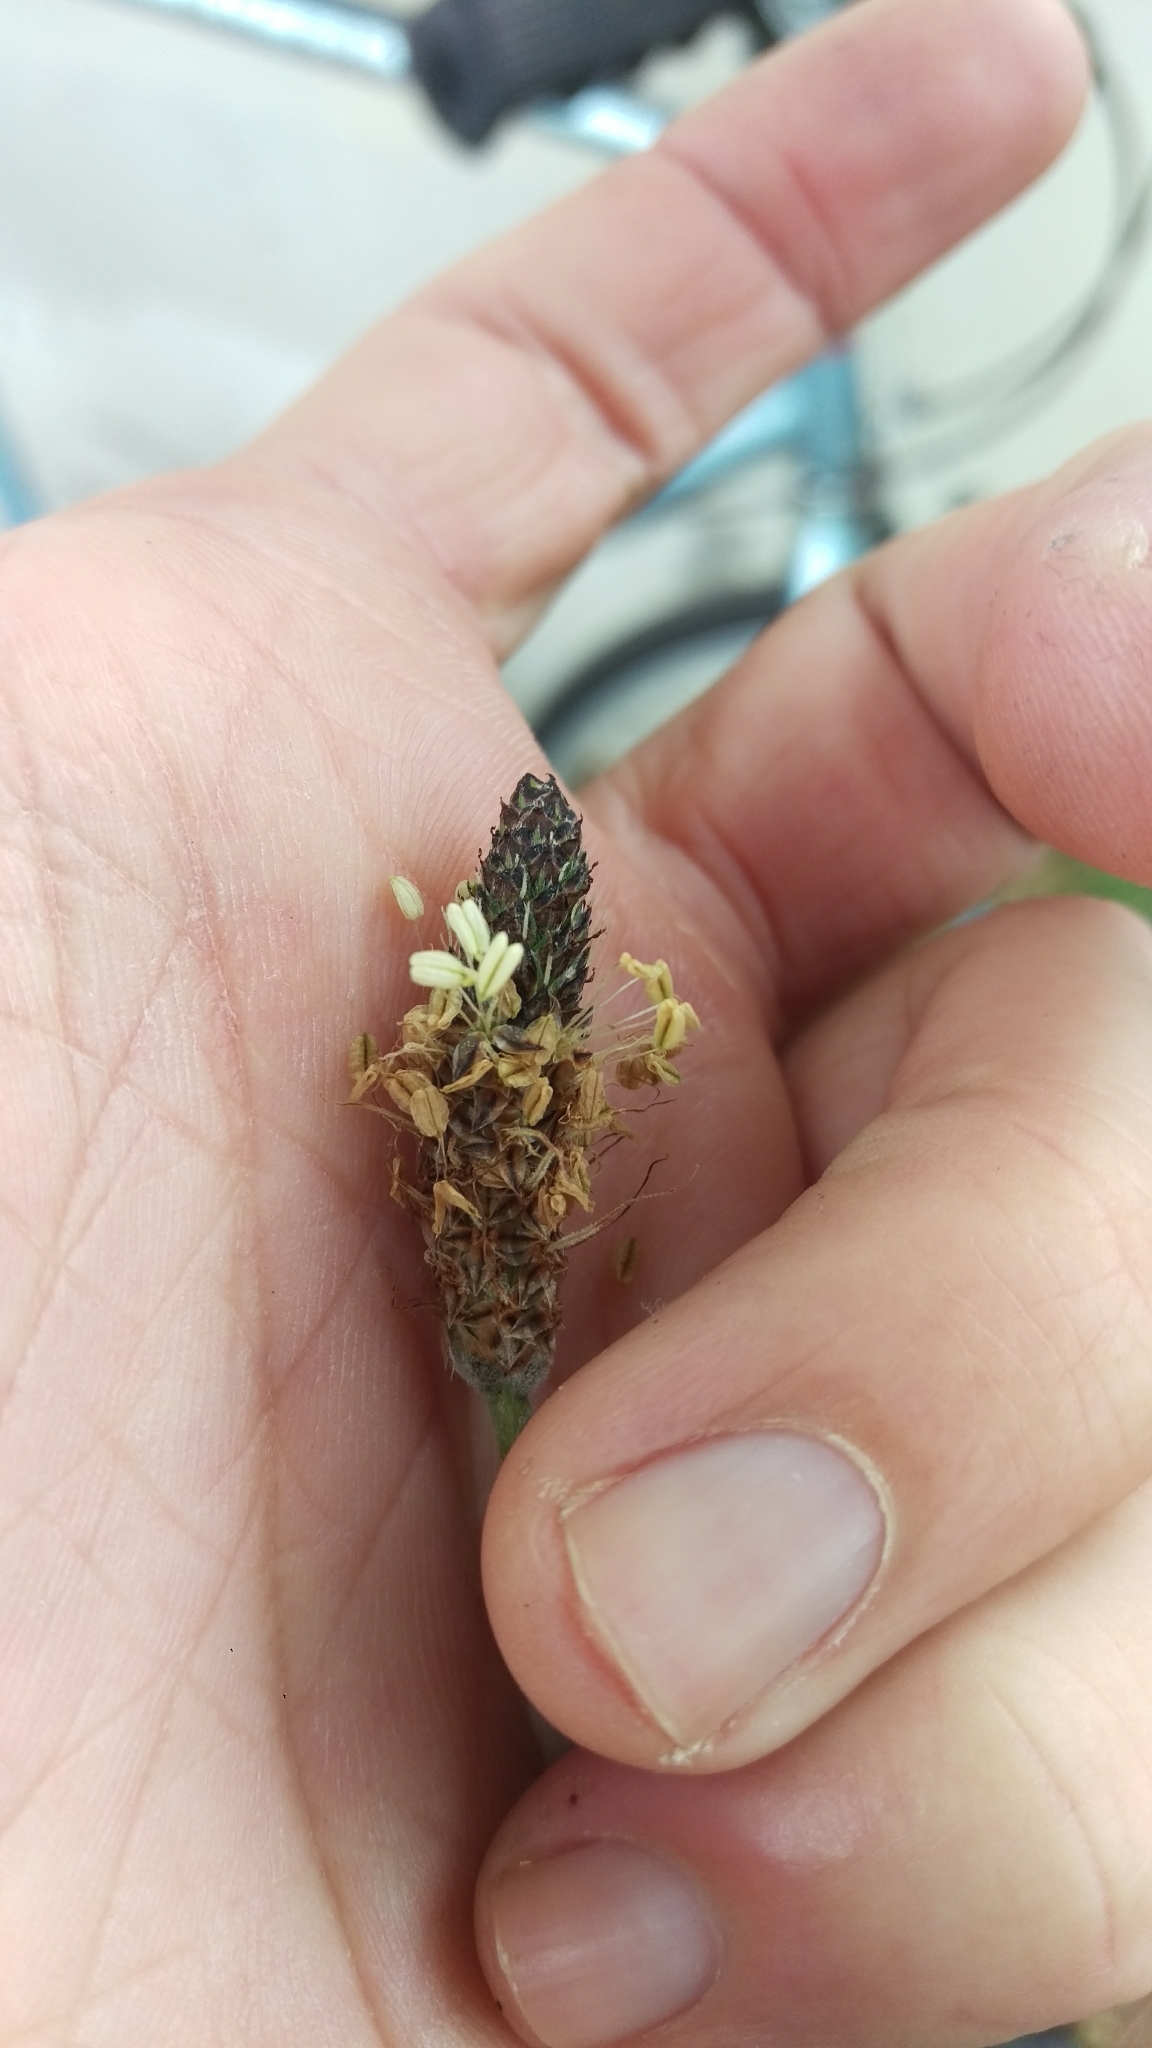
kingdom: Plantae
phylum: Tracheophyta
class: Magnoliopsida
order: Lamiales
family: Plantaginaceae
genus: Plantago
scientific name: Plantago lanceolata
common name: Ribwort plantain
